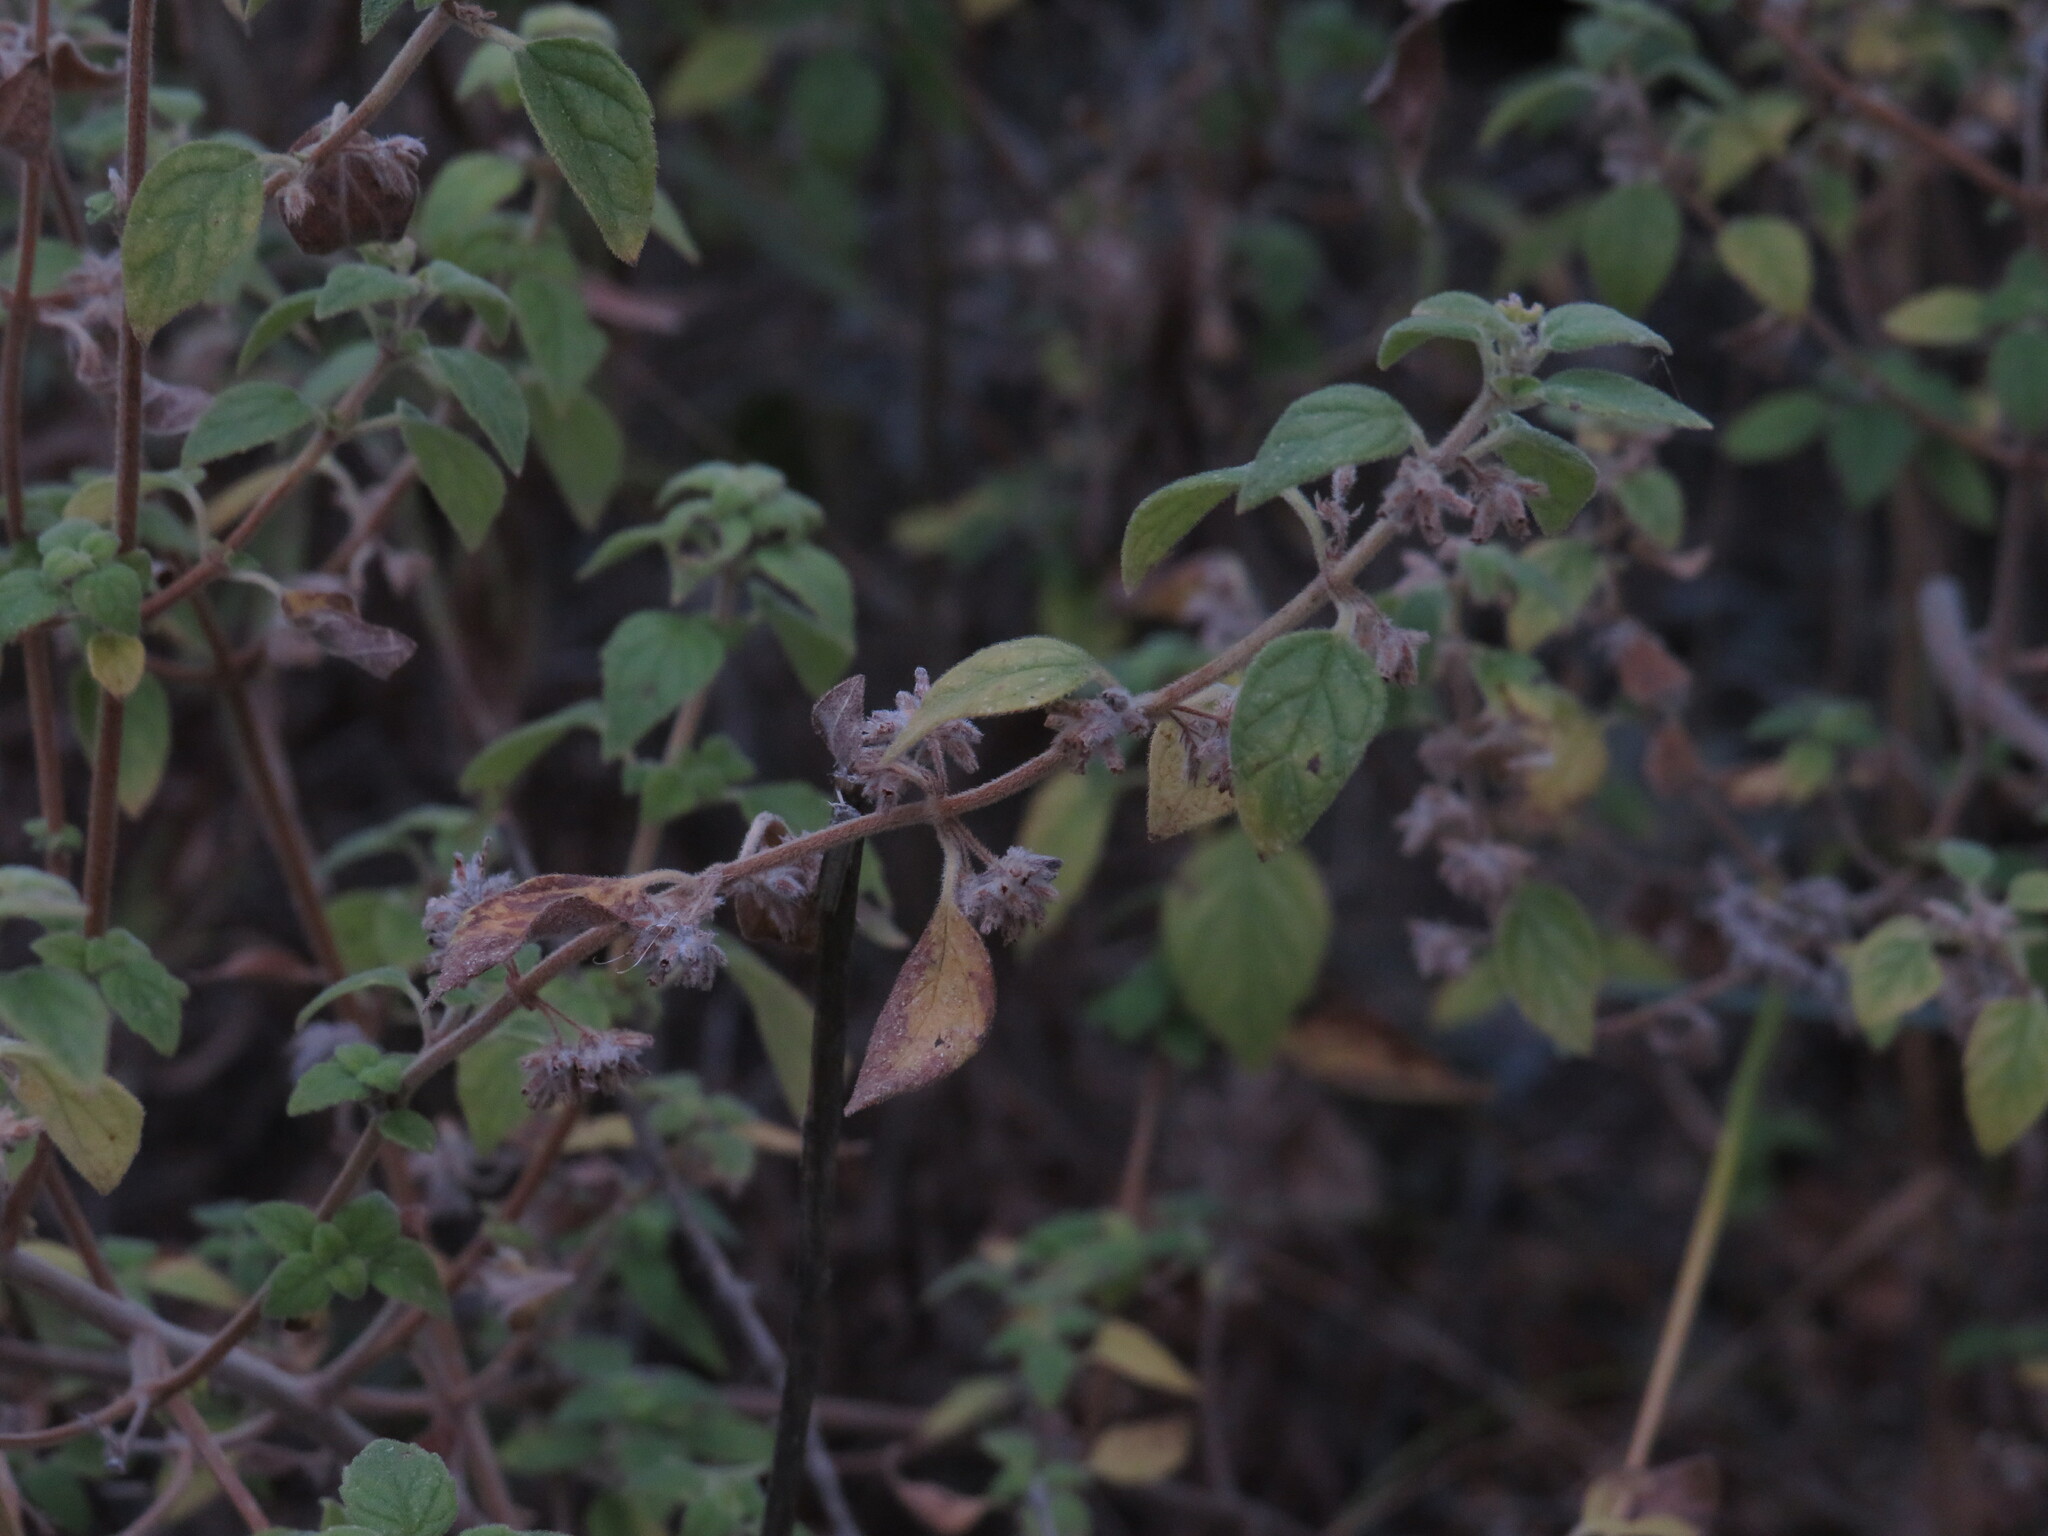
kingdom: Plantae
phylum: Tracheophyta
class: Magnoliopsida
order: Lamiales
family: Lamiaceae
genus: Minthostachys
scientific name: Minthostachys verticillata
